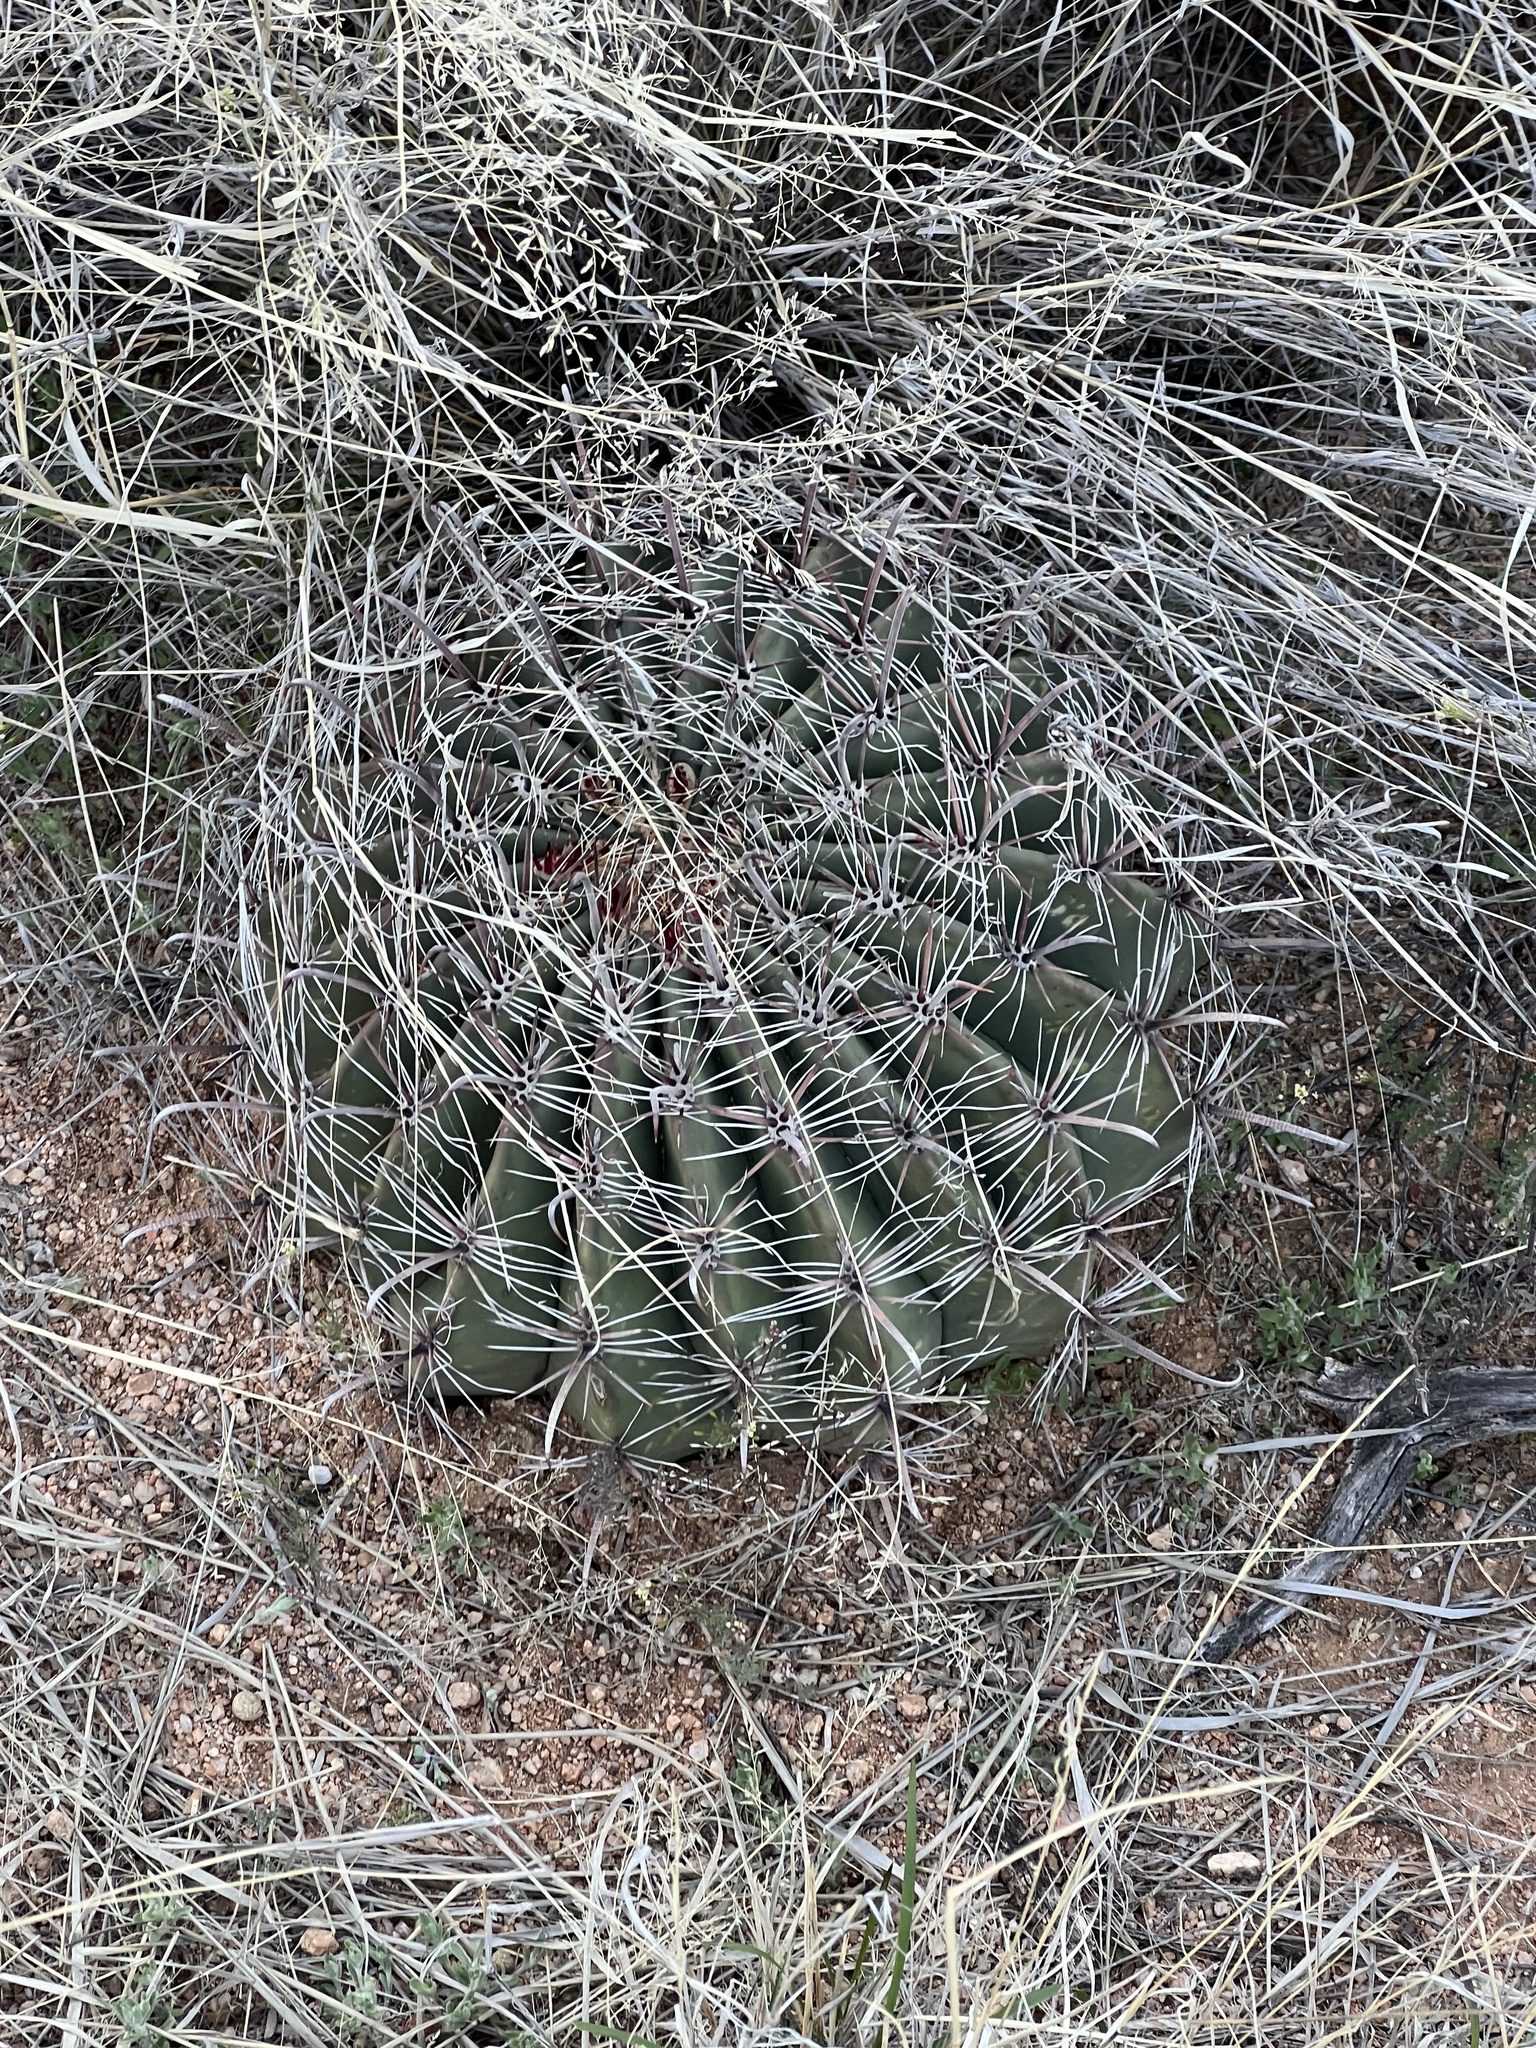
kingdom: Plantae
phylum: Tracheophyta
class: Magnoliopsida
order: Caryophyllales
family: Cactaceae
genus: Ferocactus
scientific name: Ferocactus wislizeni
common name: Candy barrel cactus
